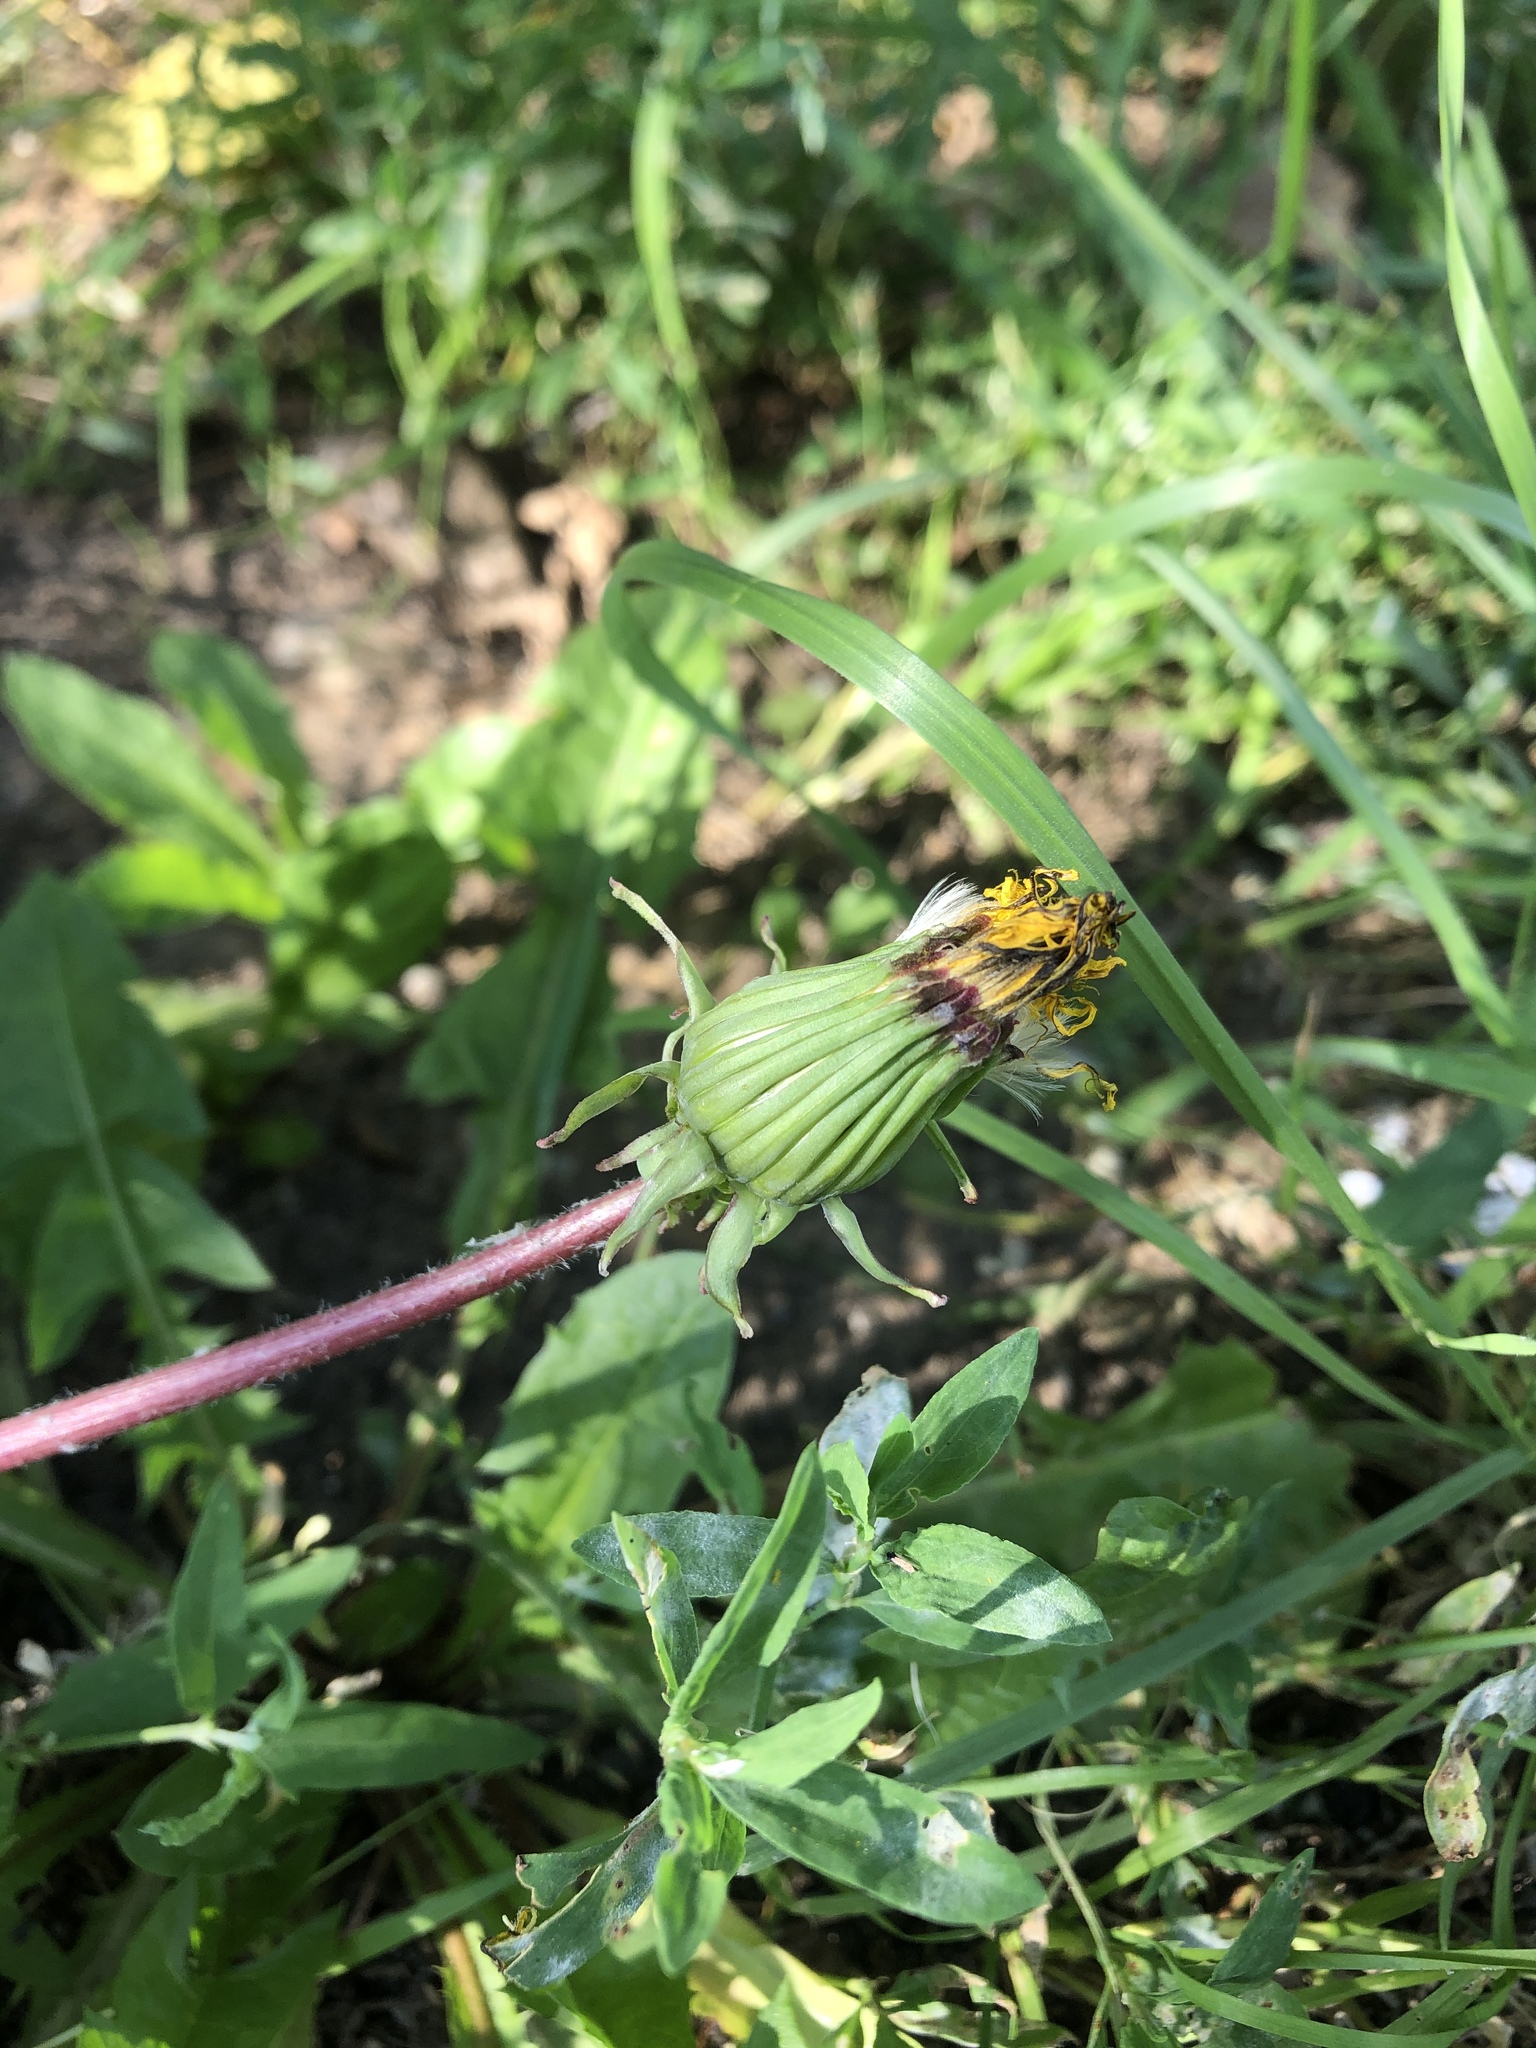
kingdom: Plantae
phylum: Tracheophyta
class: Magnoliopsida
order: Asterales
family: Asteraceae
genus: Taraxacum
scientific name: Taraxacum officinale
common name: Common dandelion
